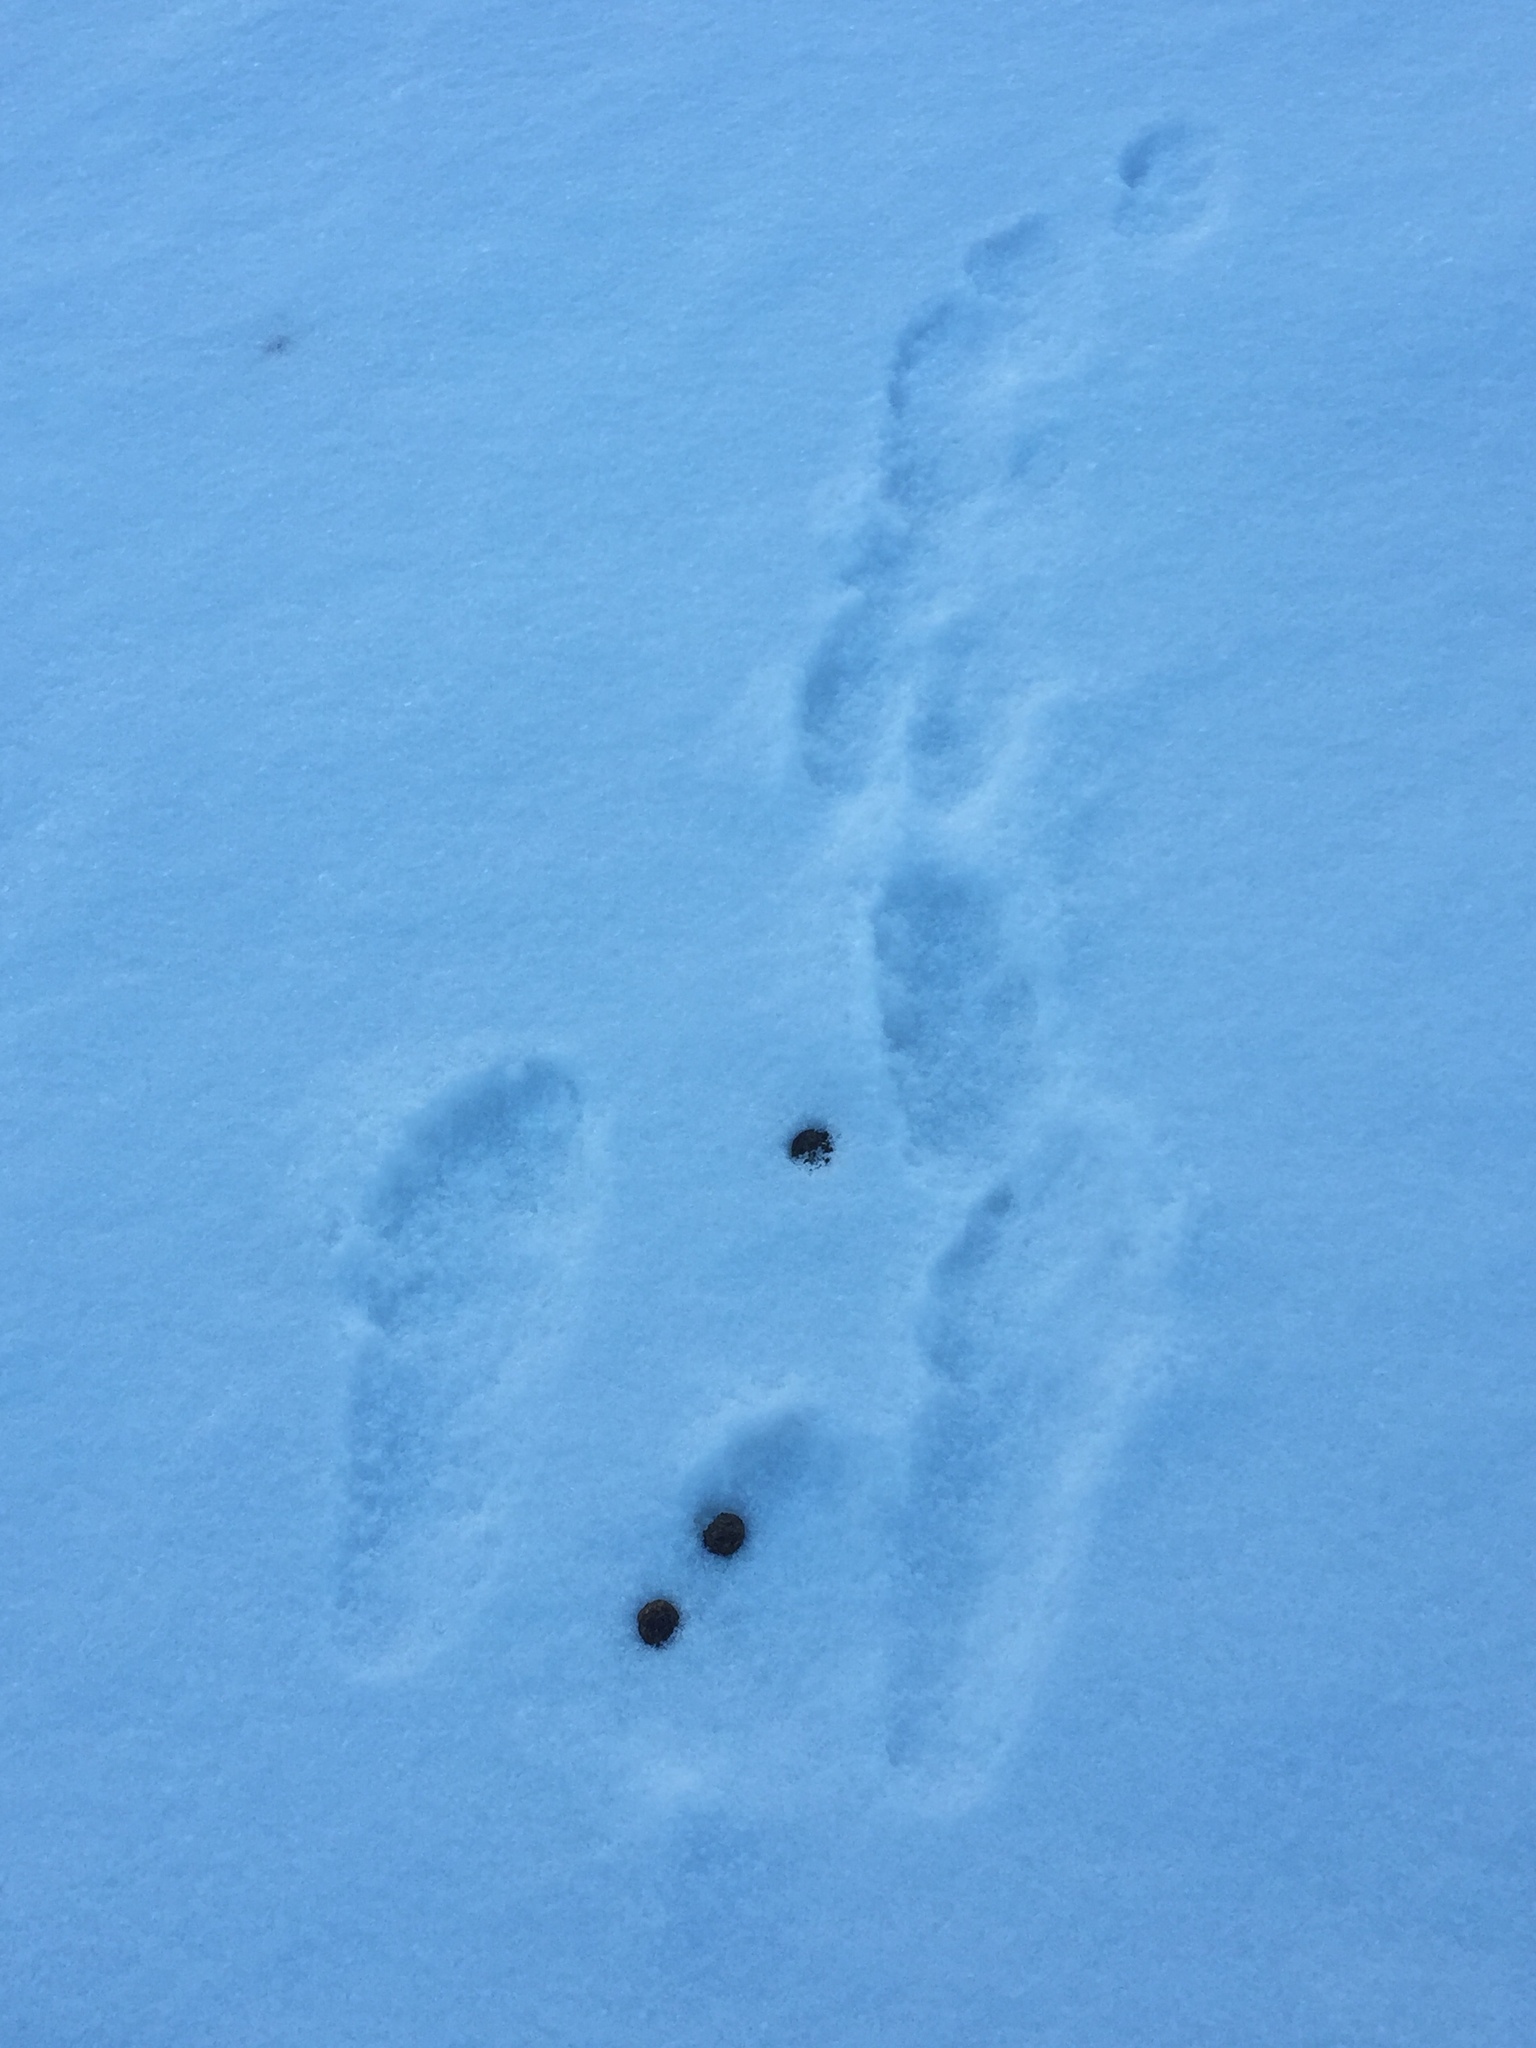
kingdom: Animalia
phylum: Chordata
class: Mammalia
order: Lagomorpha
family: Leporidae
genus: Lepus
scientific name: Lepus europaeus
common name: European hare
